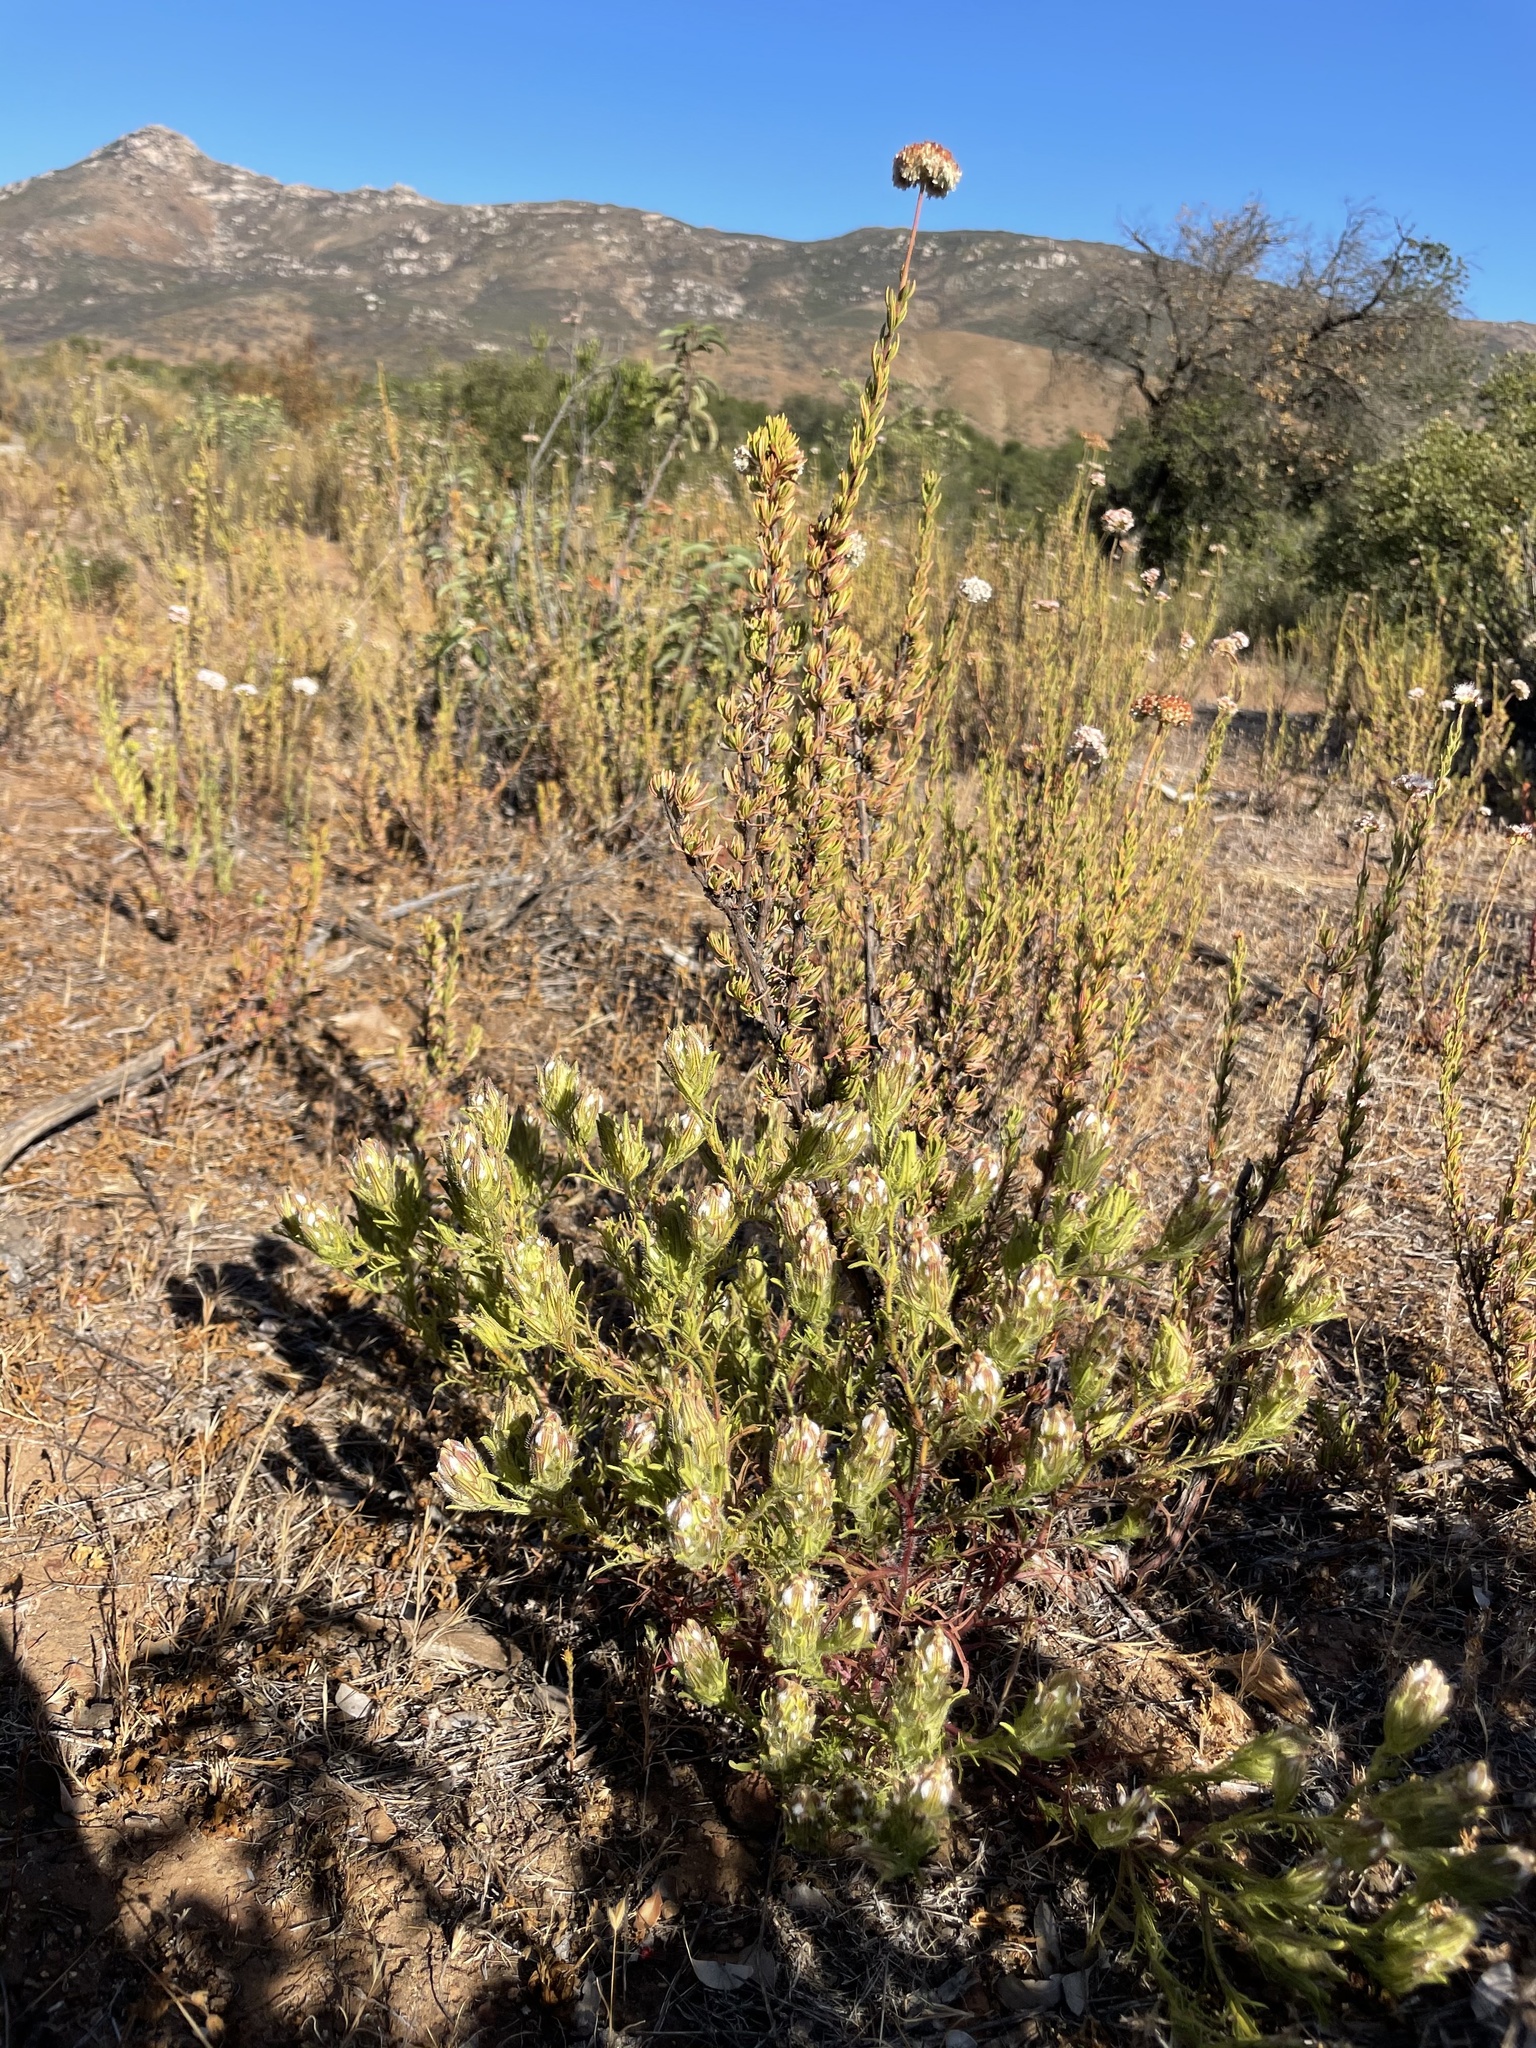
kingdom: Plantae
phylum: Tracheophyta
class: Magnoliopsida
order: Lamiales
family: Orobanchaceae
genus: Dicranostegia
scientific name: Dicranostegia orcuttiana
